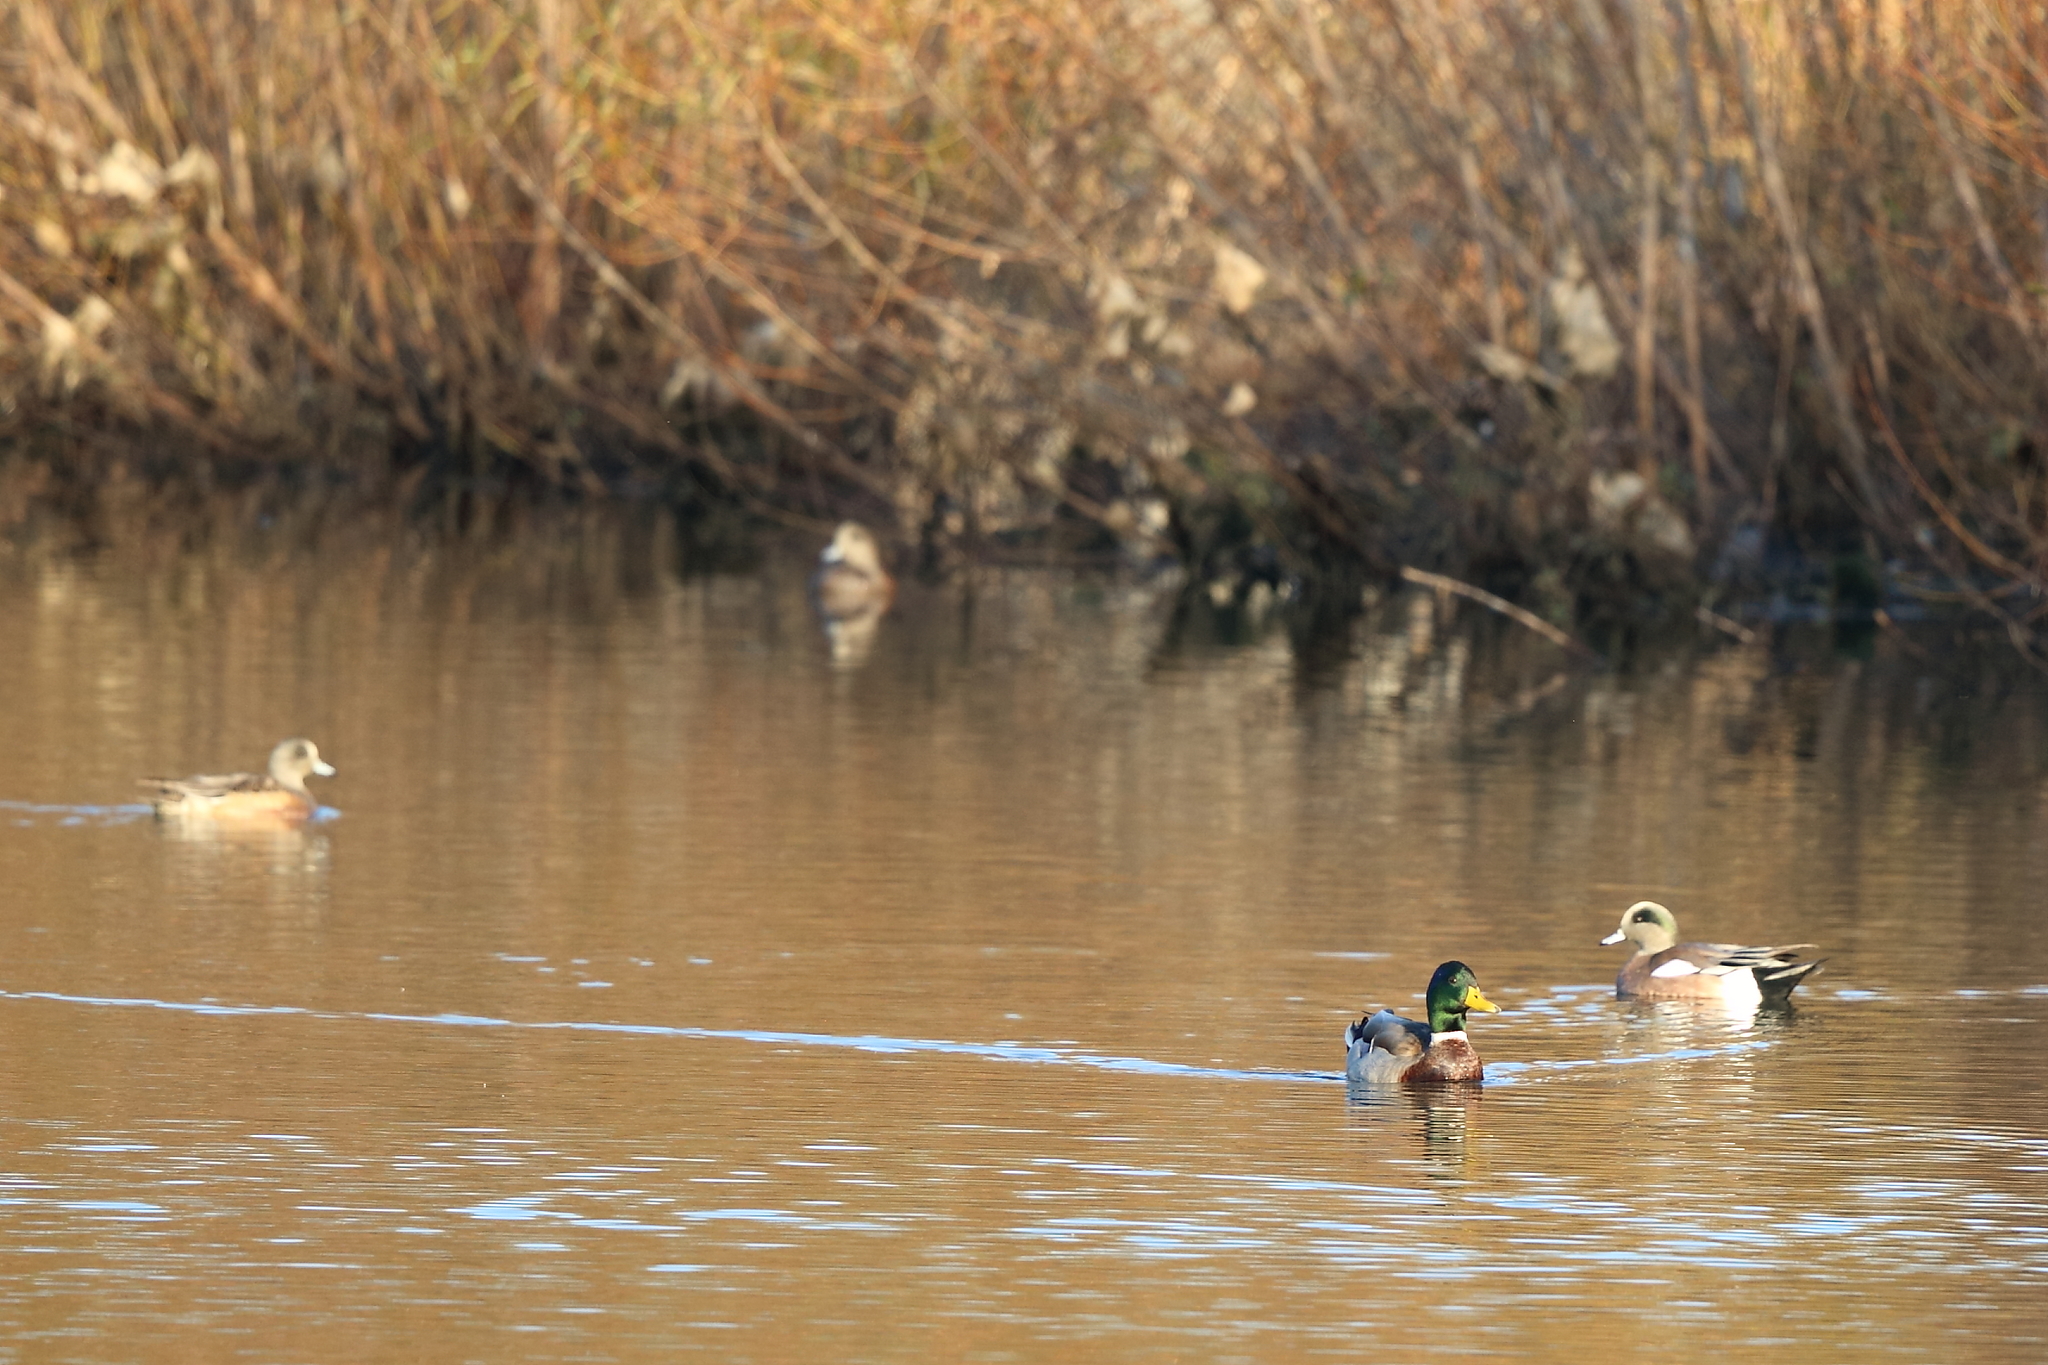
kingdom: Animalia
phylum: Chordata
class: Aves
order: Anseriformes
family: Anatidae
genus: Mareca
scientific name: Mareca americana
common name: American wigeon
